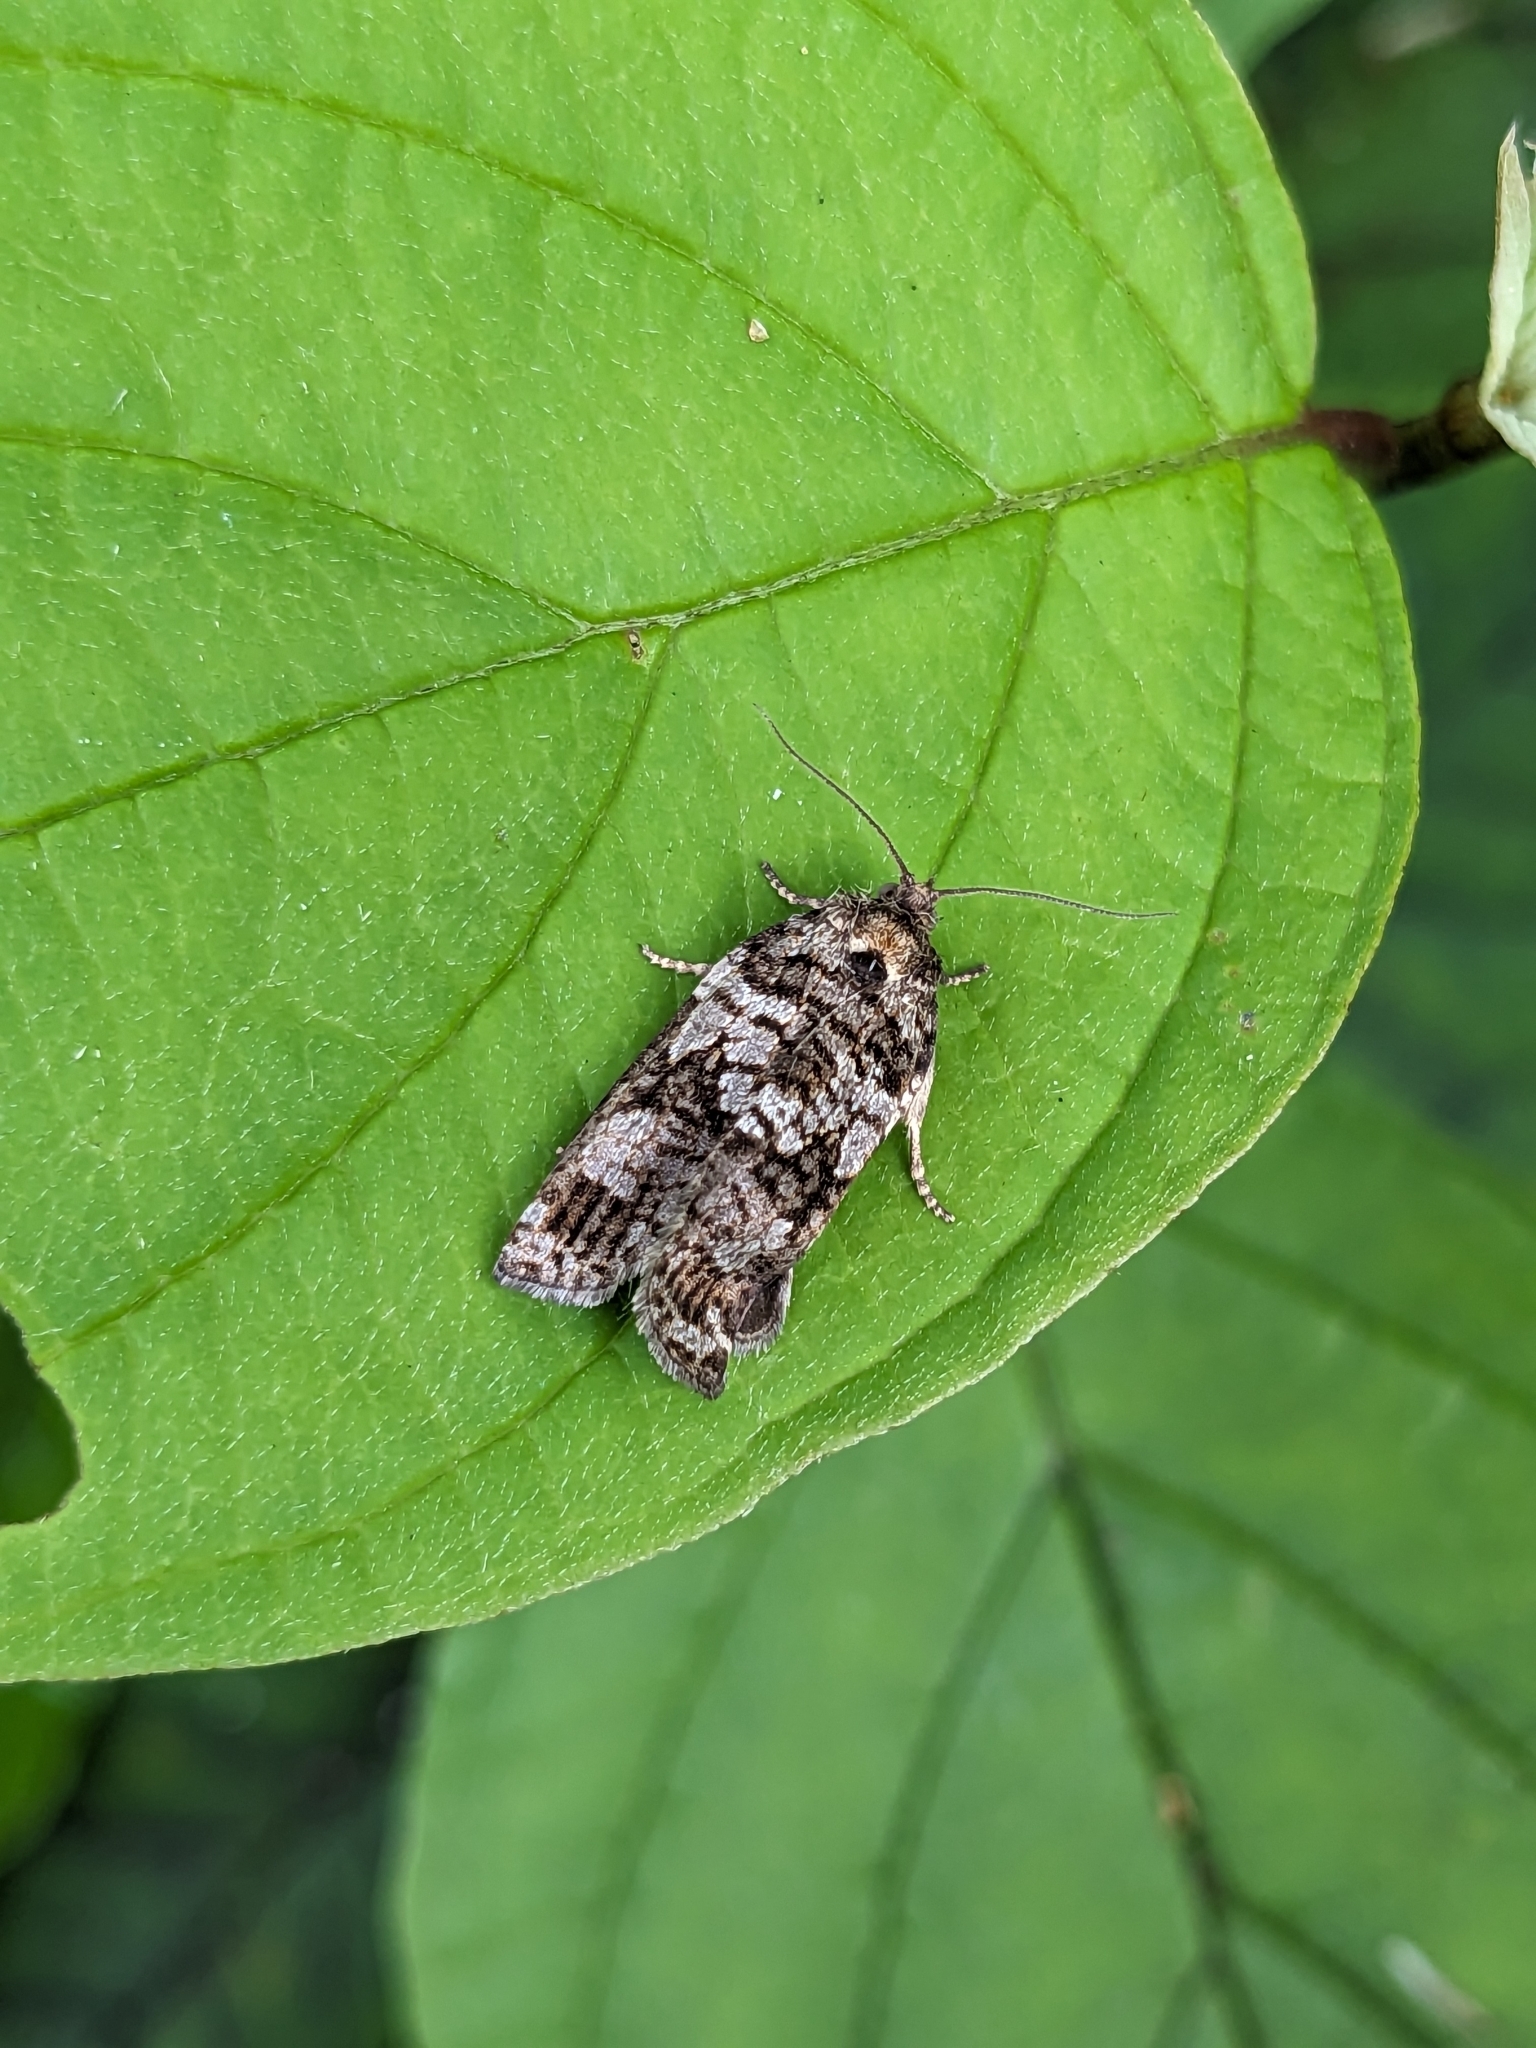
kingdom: Animalia
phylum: Arthropoda
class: Insecta
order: Lepidoptera
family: Tortricidae
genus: Choristoneura
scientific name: Choristoneura fumiferana
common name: Spruce budworm
